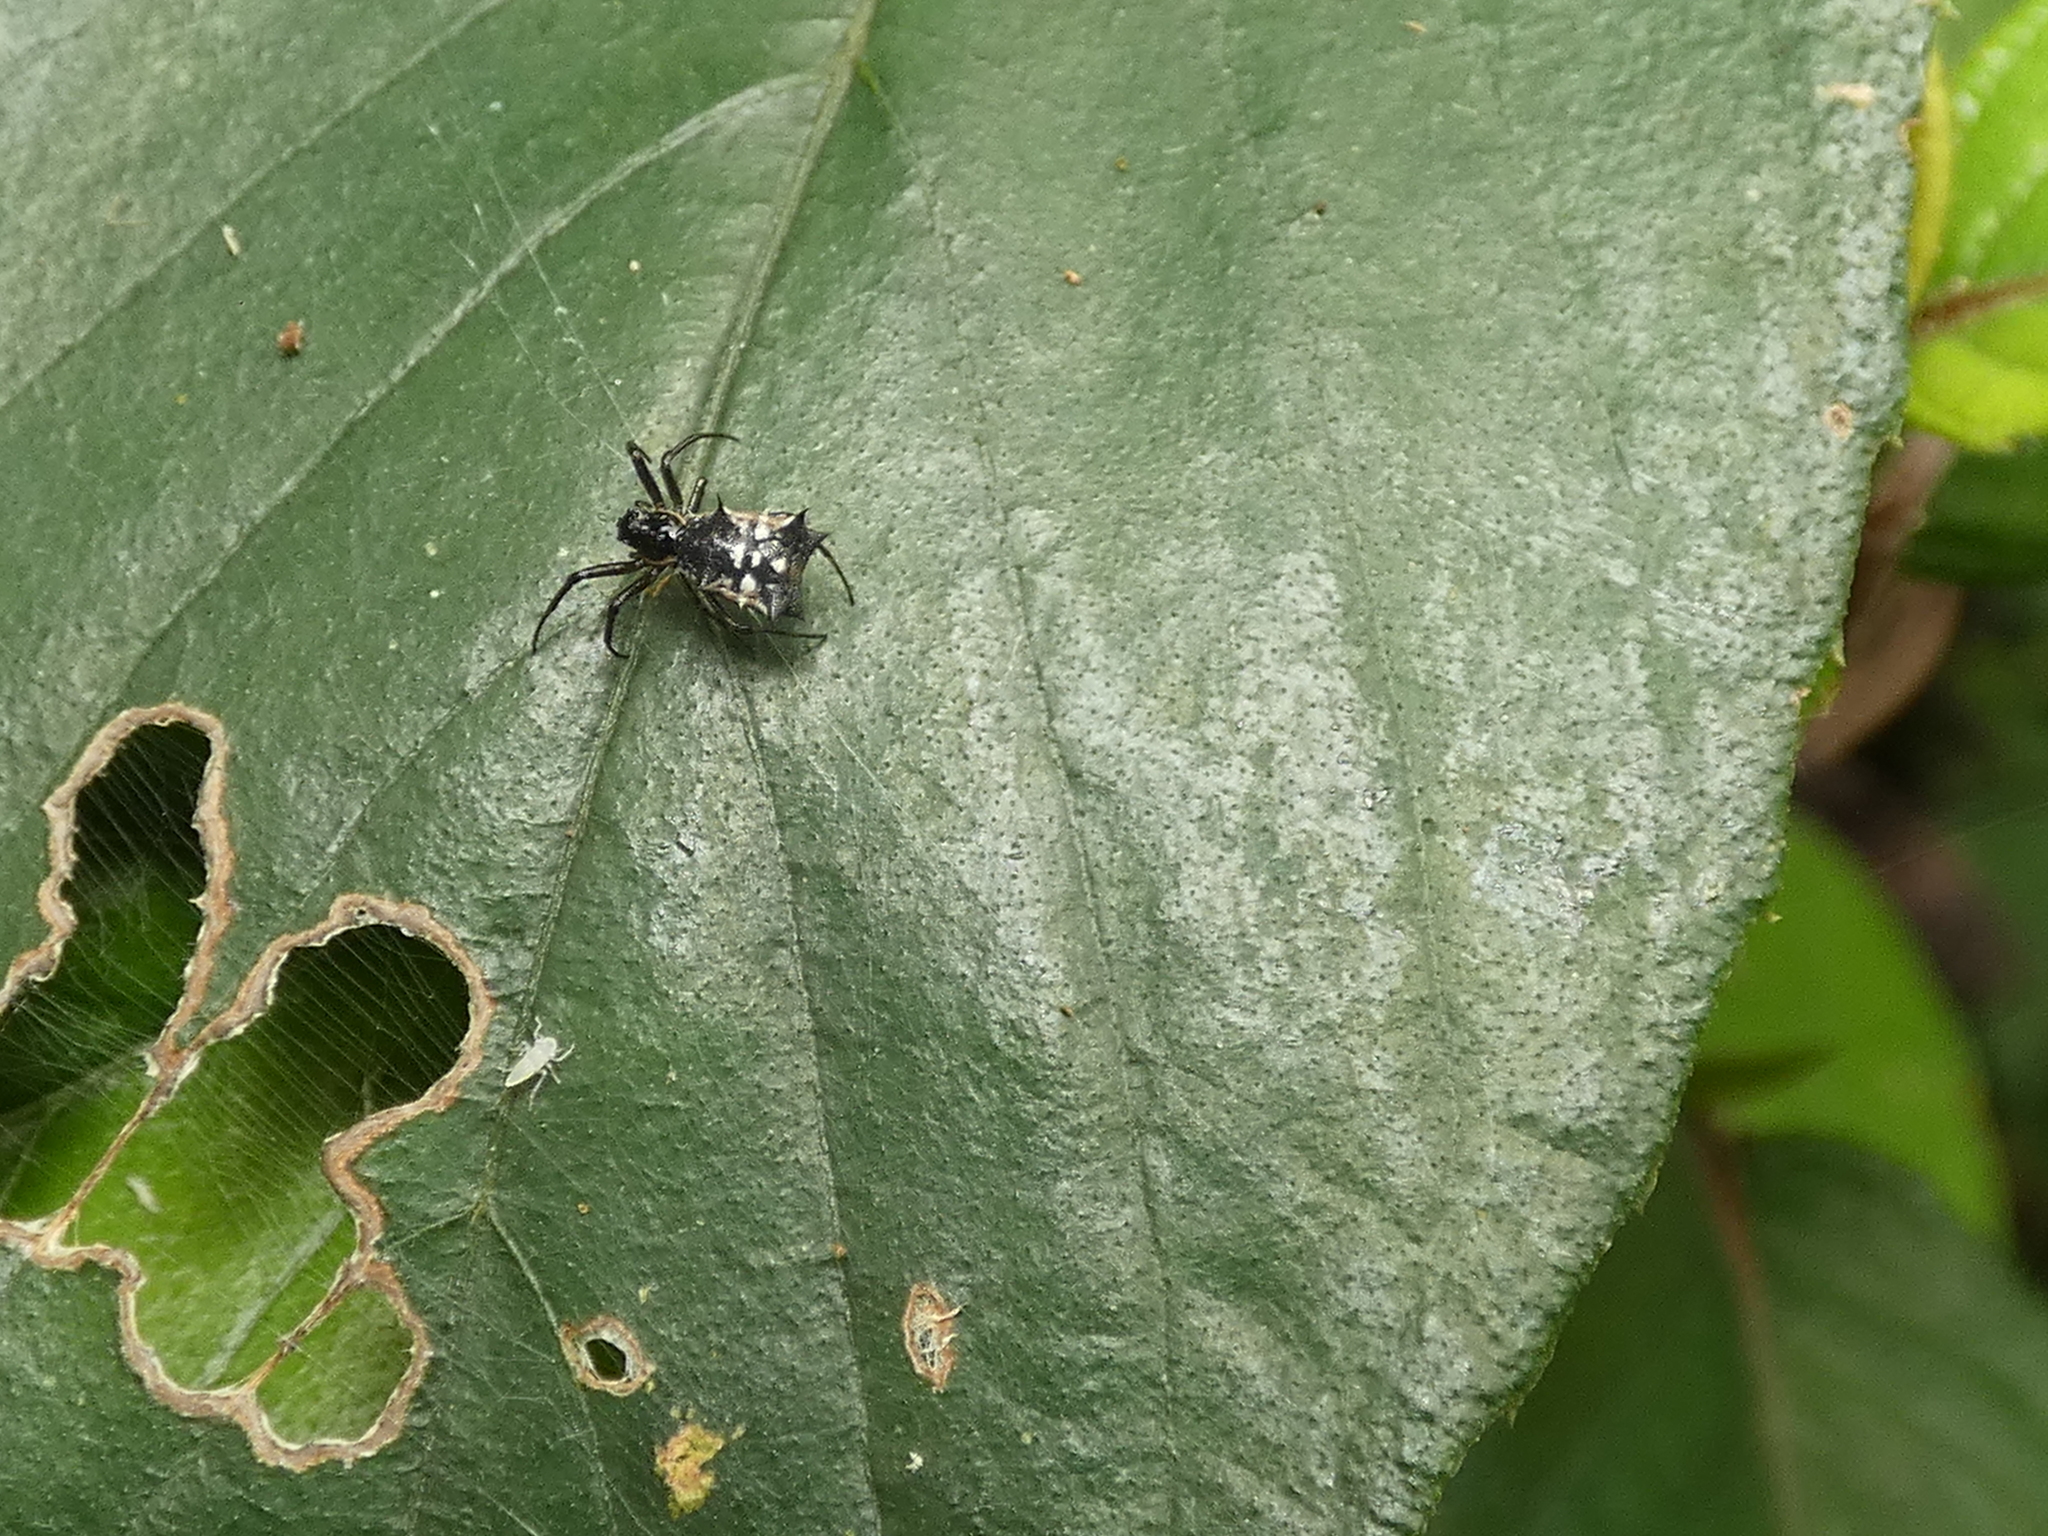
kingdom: Animalia
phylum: Arthropoda
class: Arachnida
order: Araneae
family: Araneidae
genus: Micrathena
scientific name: Micrathena picta
